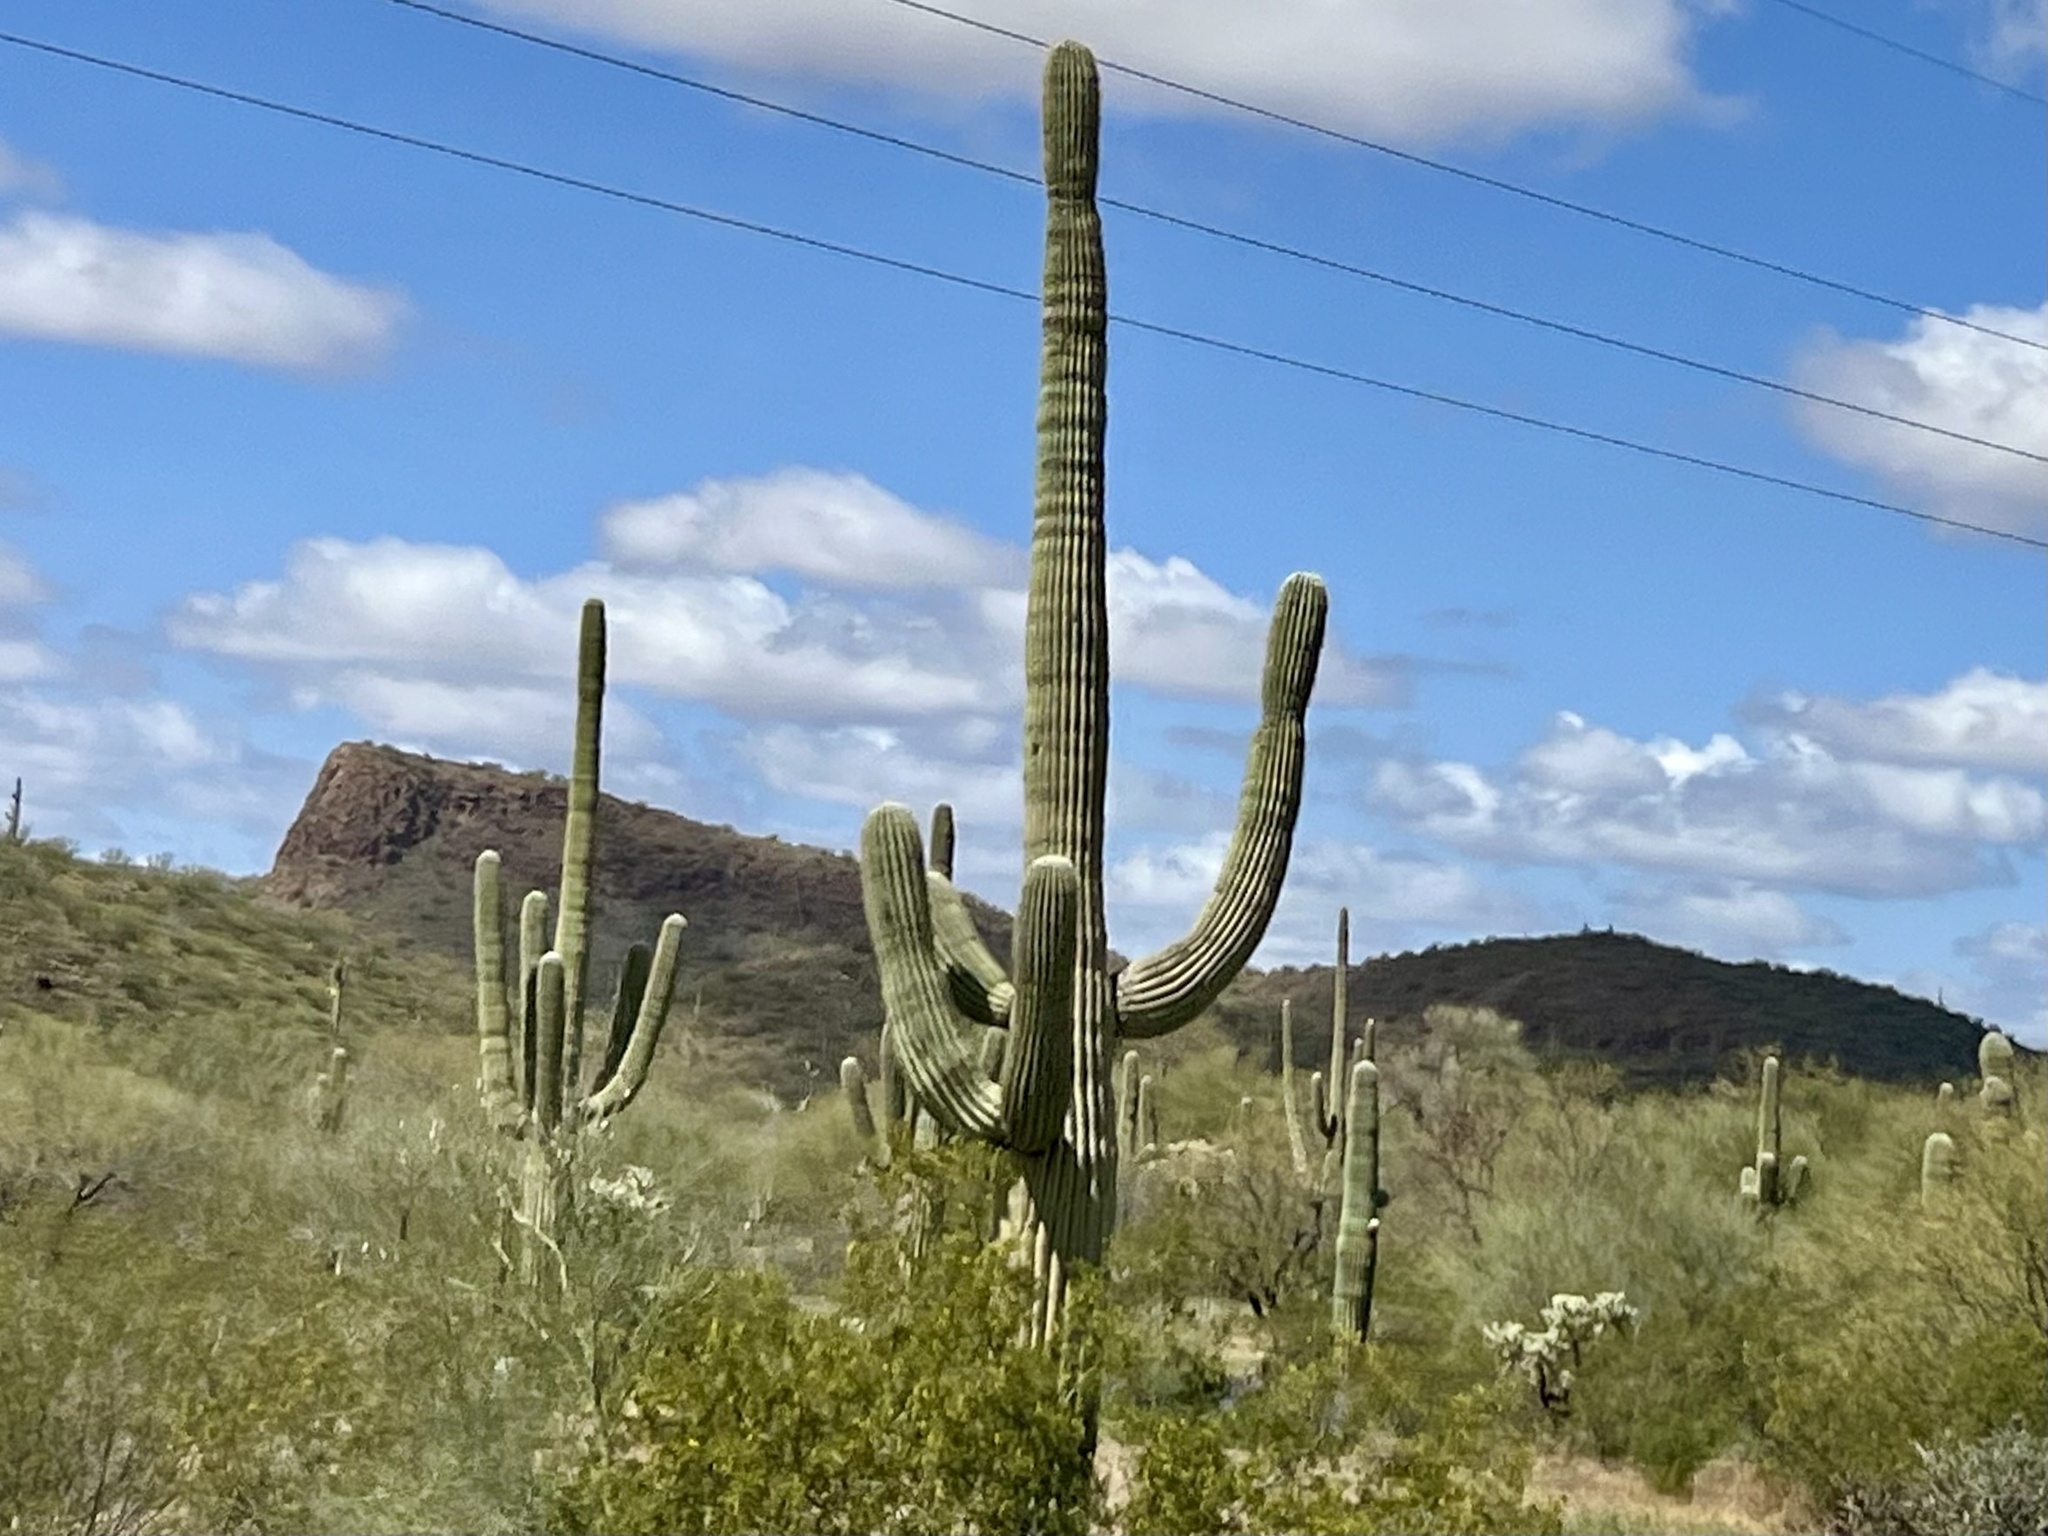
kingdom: Plantae
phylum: Tracheophyta
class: Magnoliopsida
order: Caryophyllales
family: Cactaceae
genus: Carnegiea
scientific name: Carnegiea gigantea
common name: Saguaro
